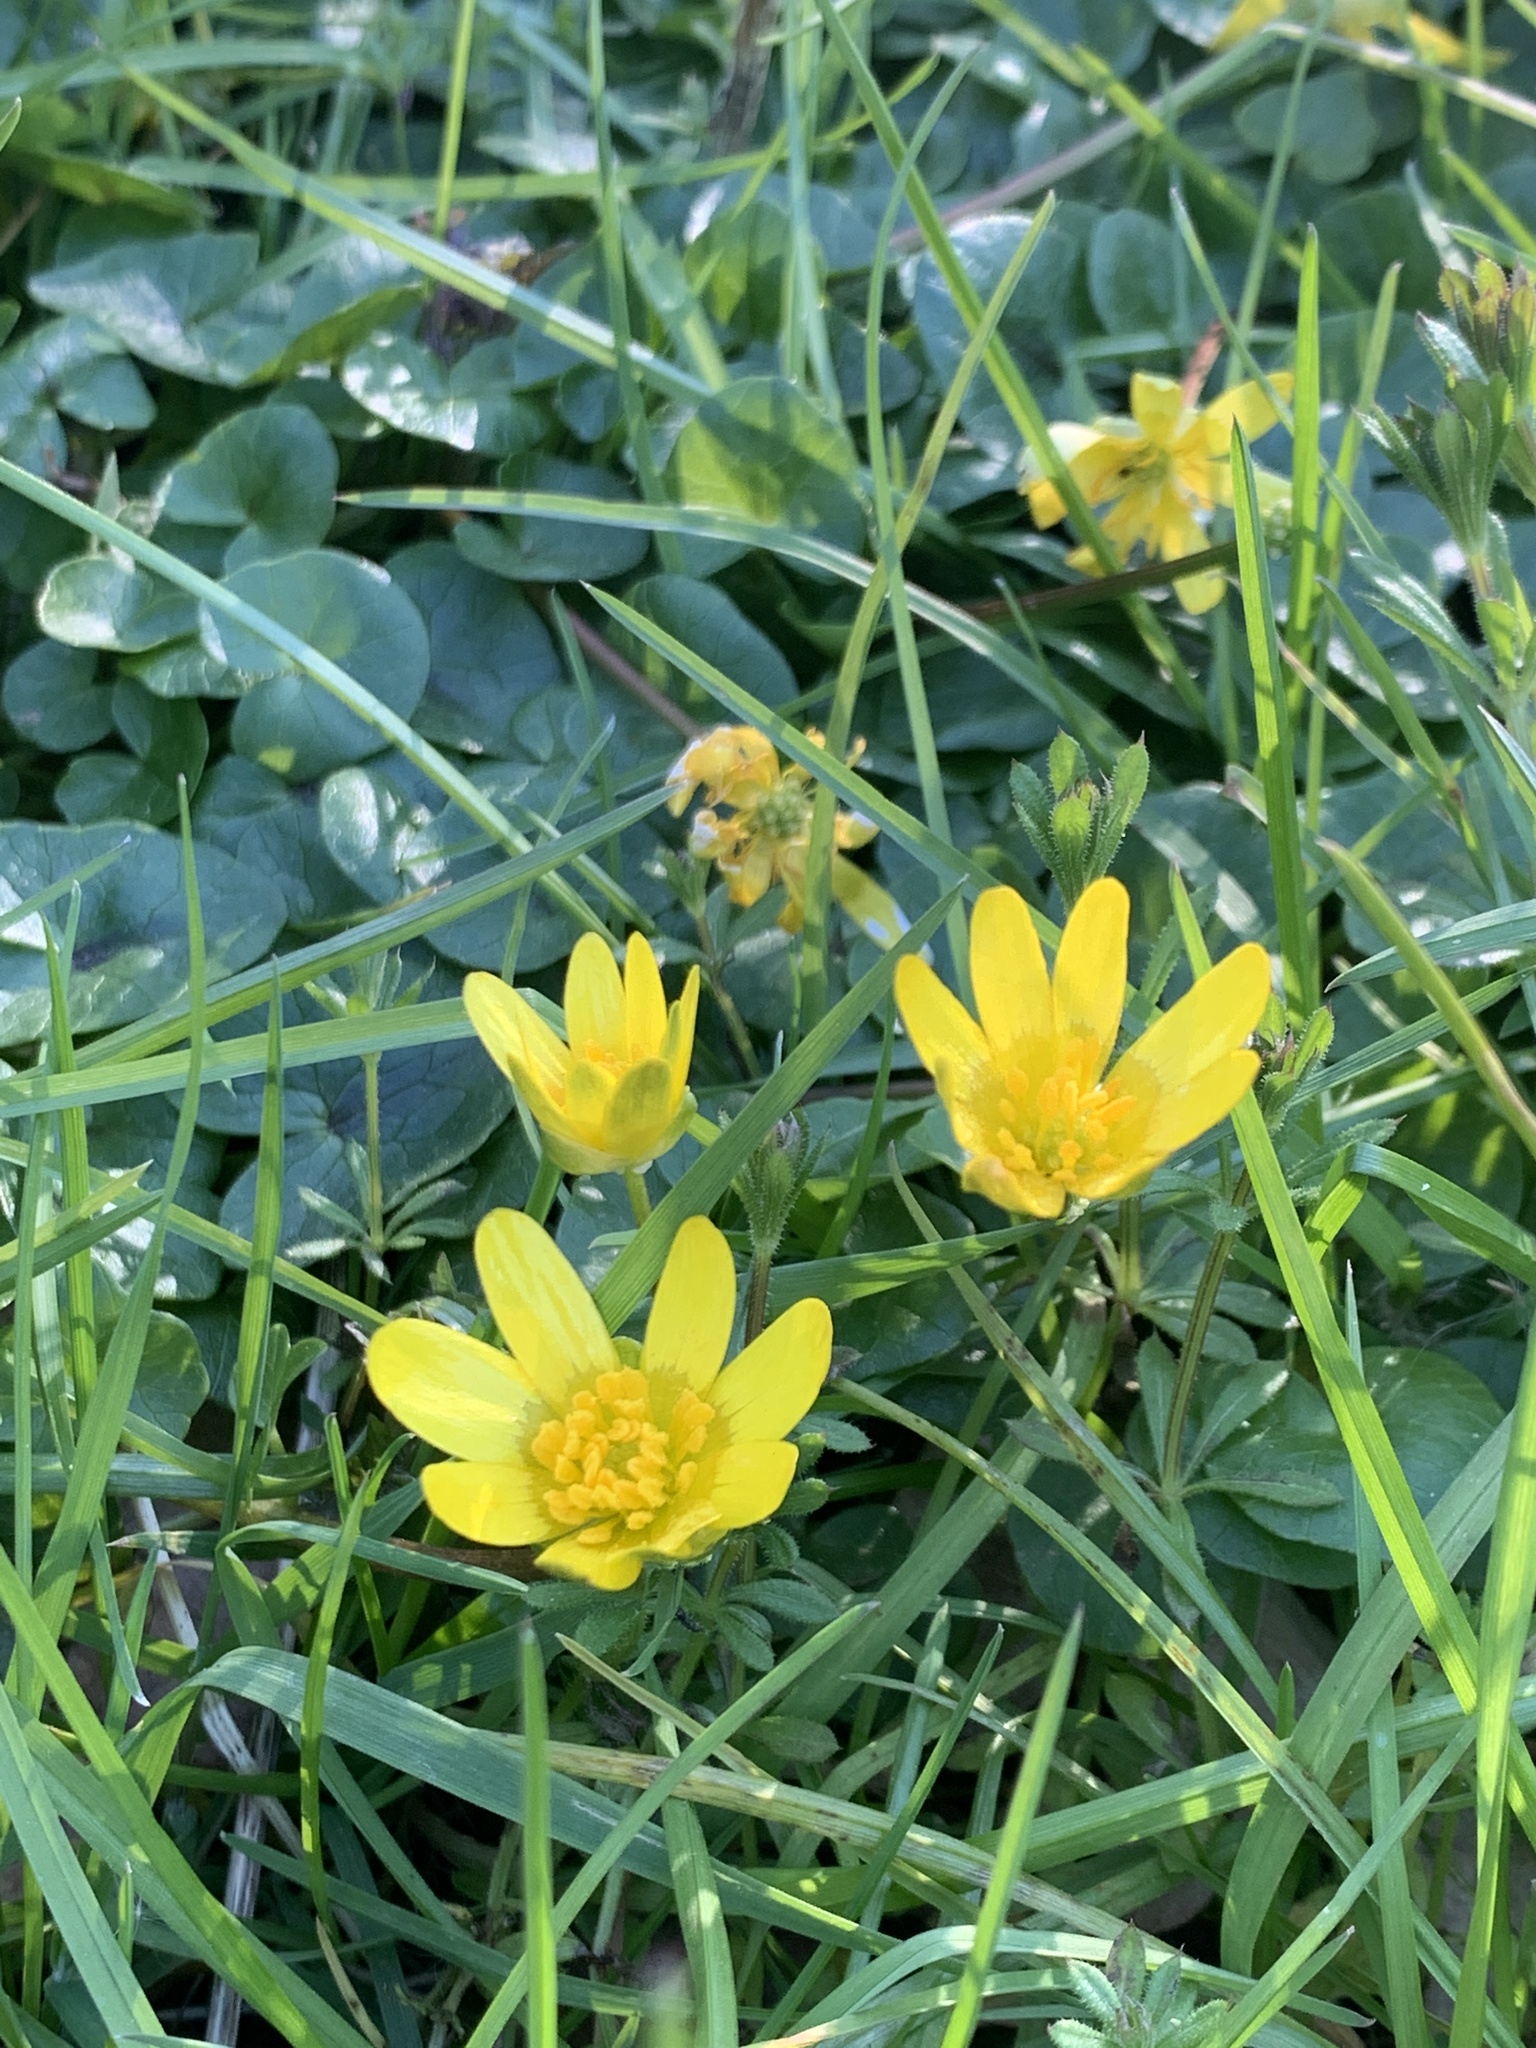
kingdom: Plantae
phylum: Tracheophyta
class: Magnoliopsida
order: Ranunculales
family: Ranunculaceae
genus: Ficaria
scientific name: Ficaria verna
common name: Lesser celandine
